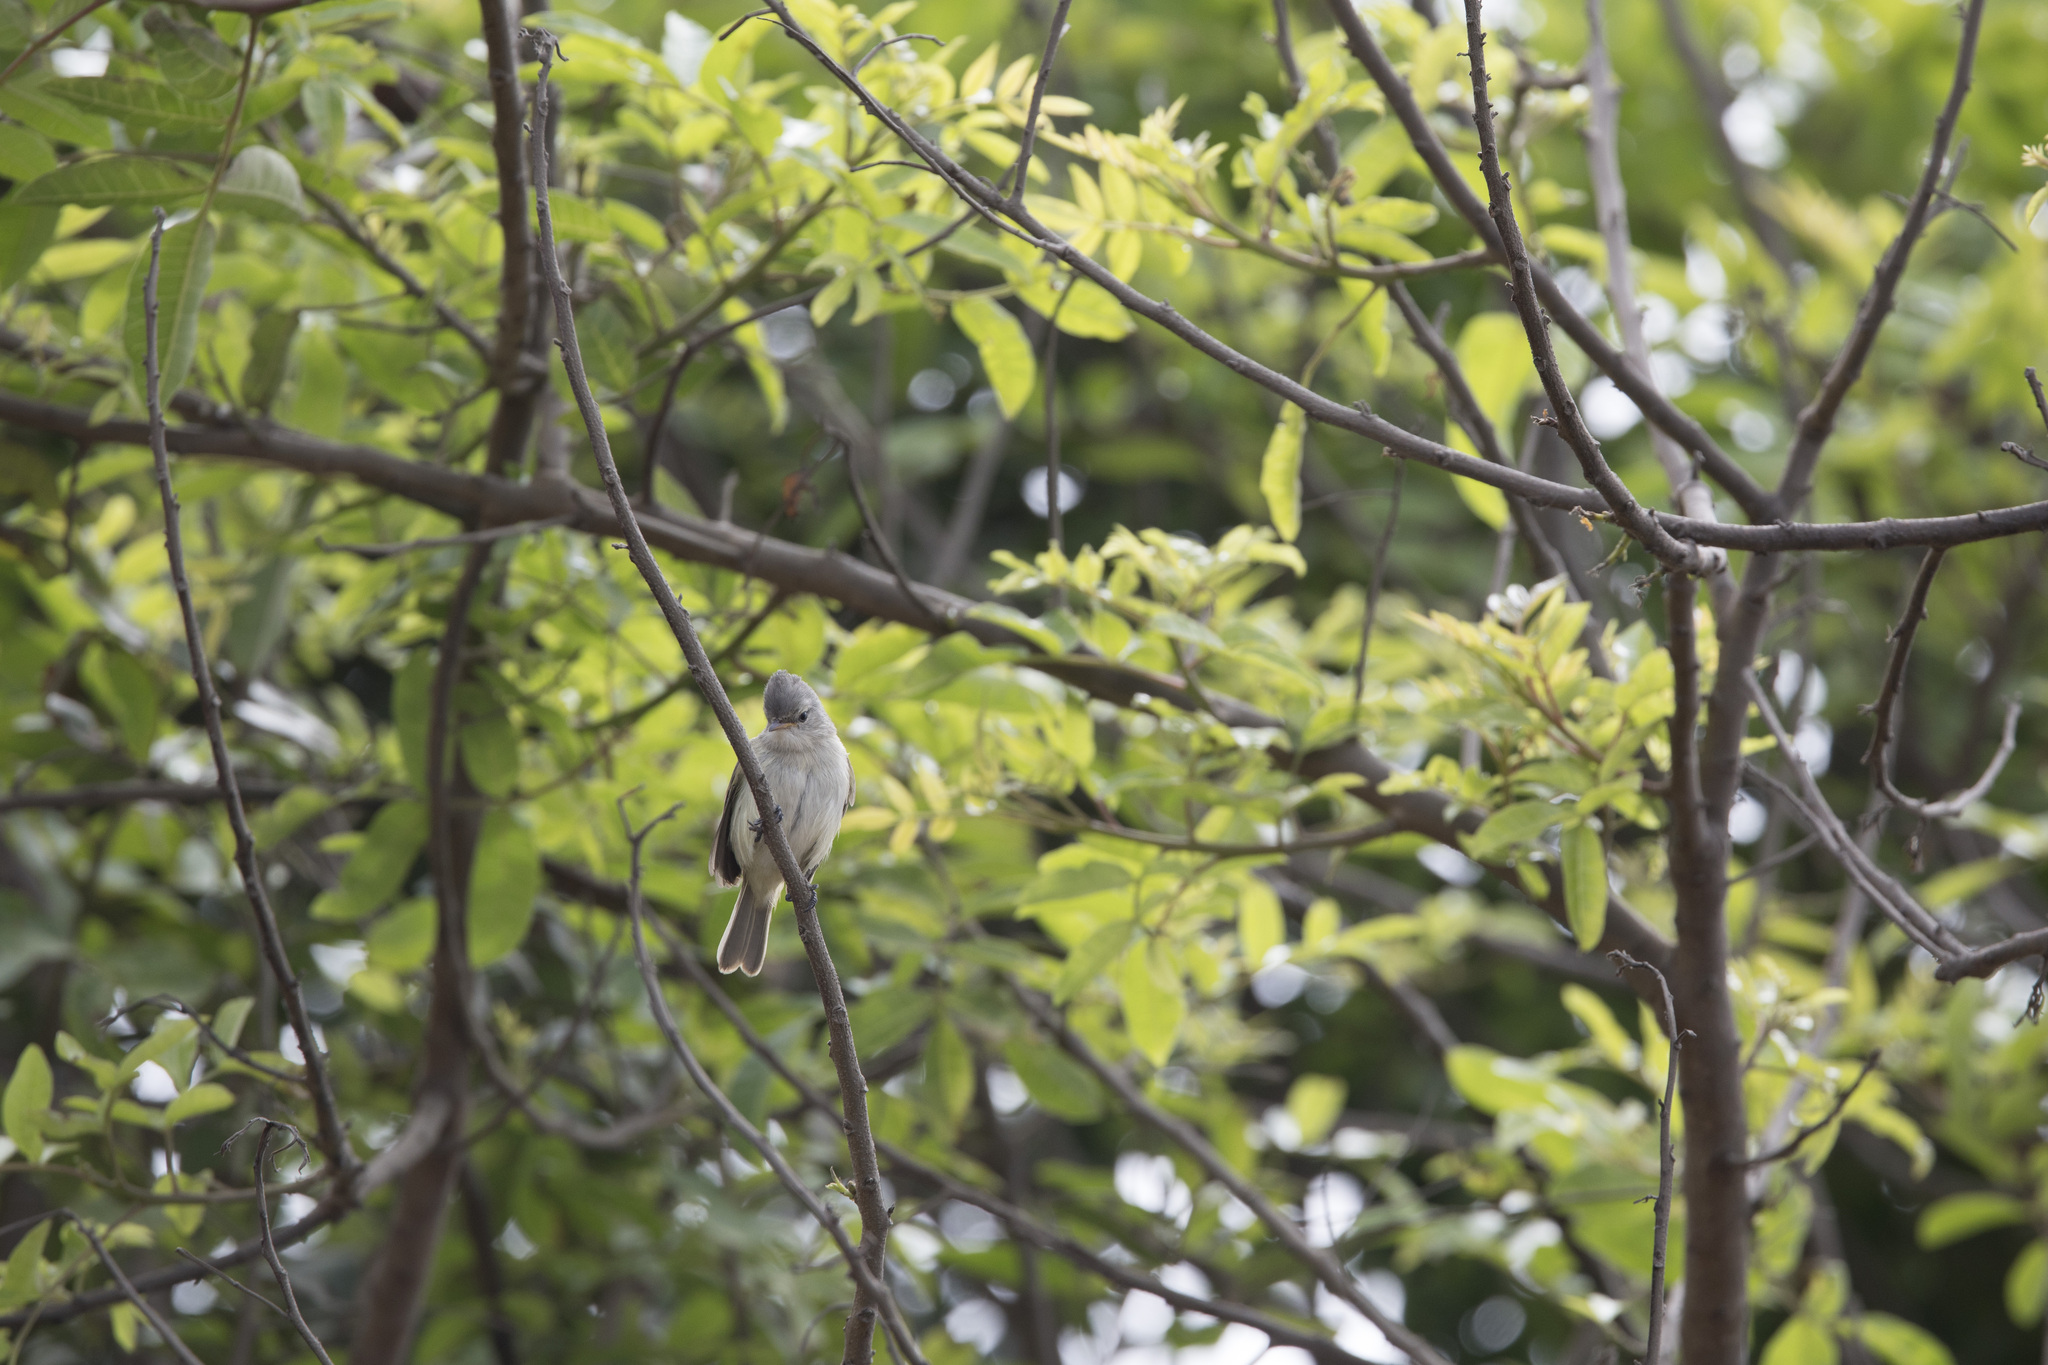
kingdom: Animalia
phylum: Chordata
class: Aves
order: Passeriformes
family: Tyrannidae
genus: Camptostoma
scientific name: Camptostoma obsoletum
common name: Southern beardless-tyrannulet
